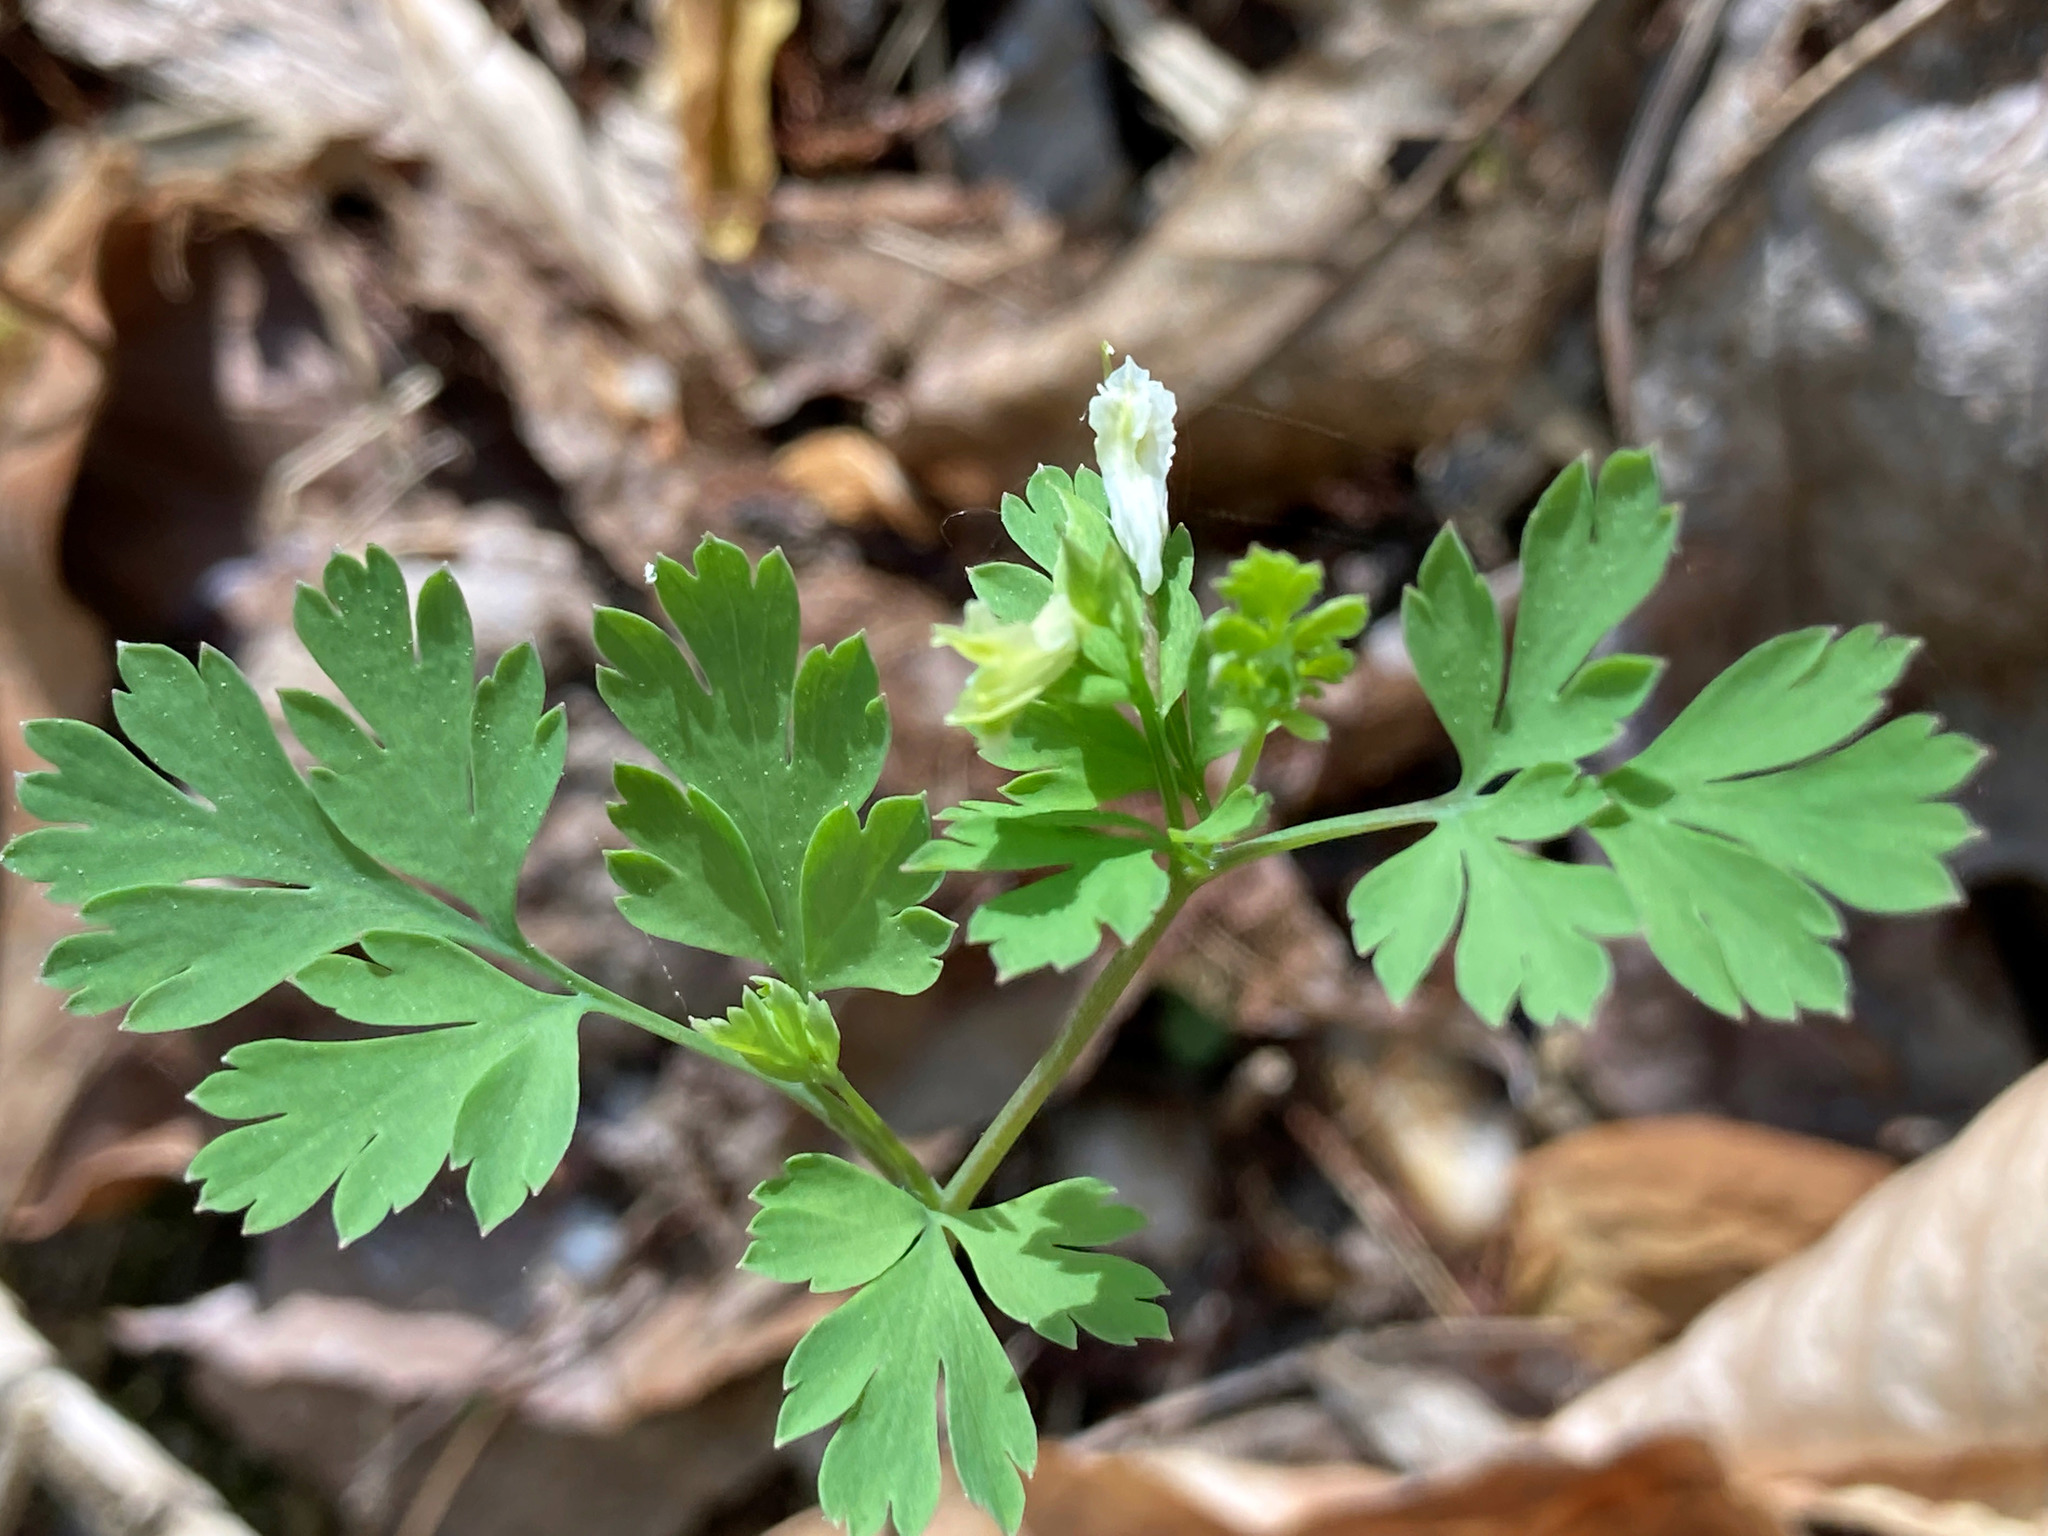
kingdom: Plantae
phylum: Tracheophyta
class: Magnoliopsida
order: Ranunculales
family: Papaveraceae
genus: Corydalis
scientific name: Corydalis flavula
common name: Yellow corydalis
